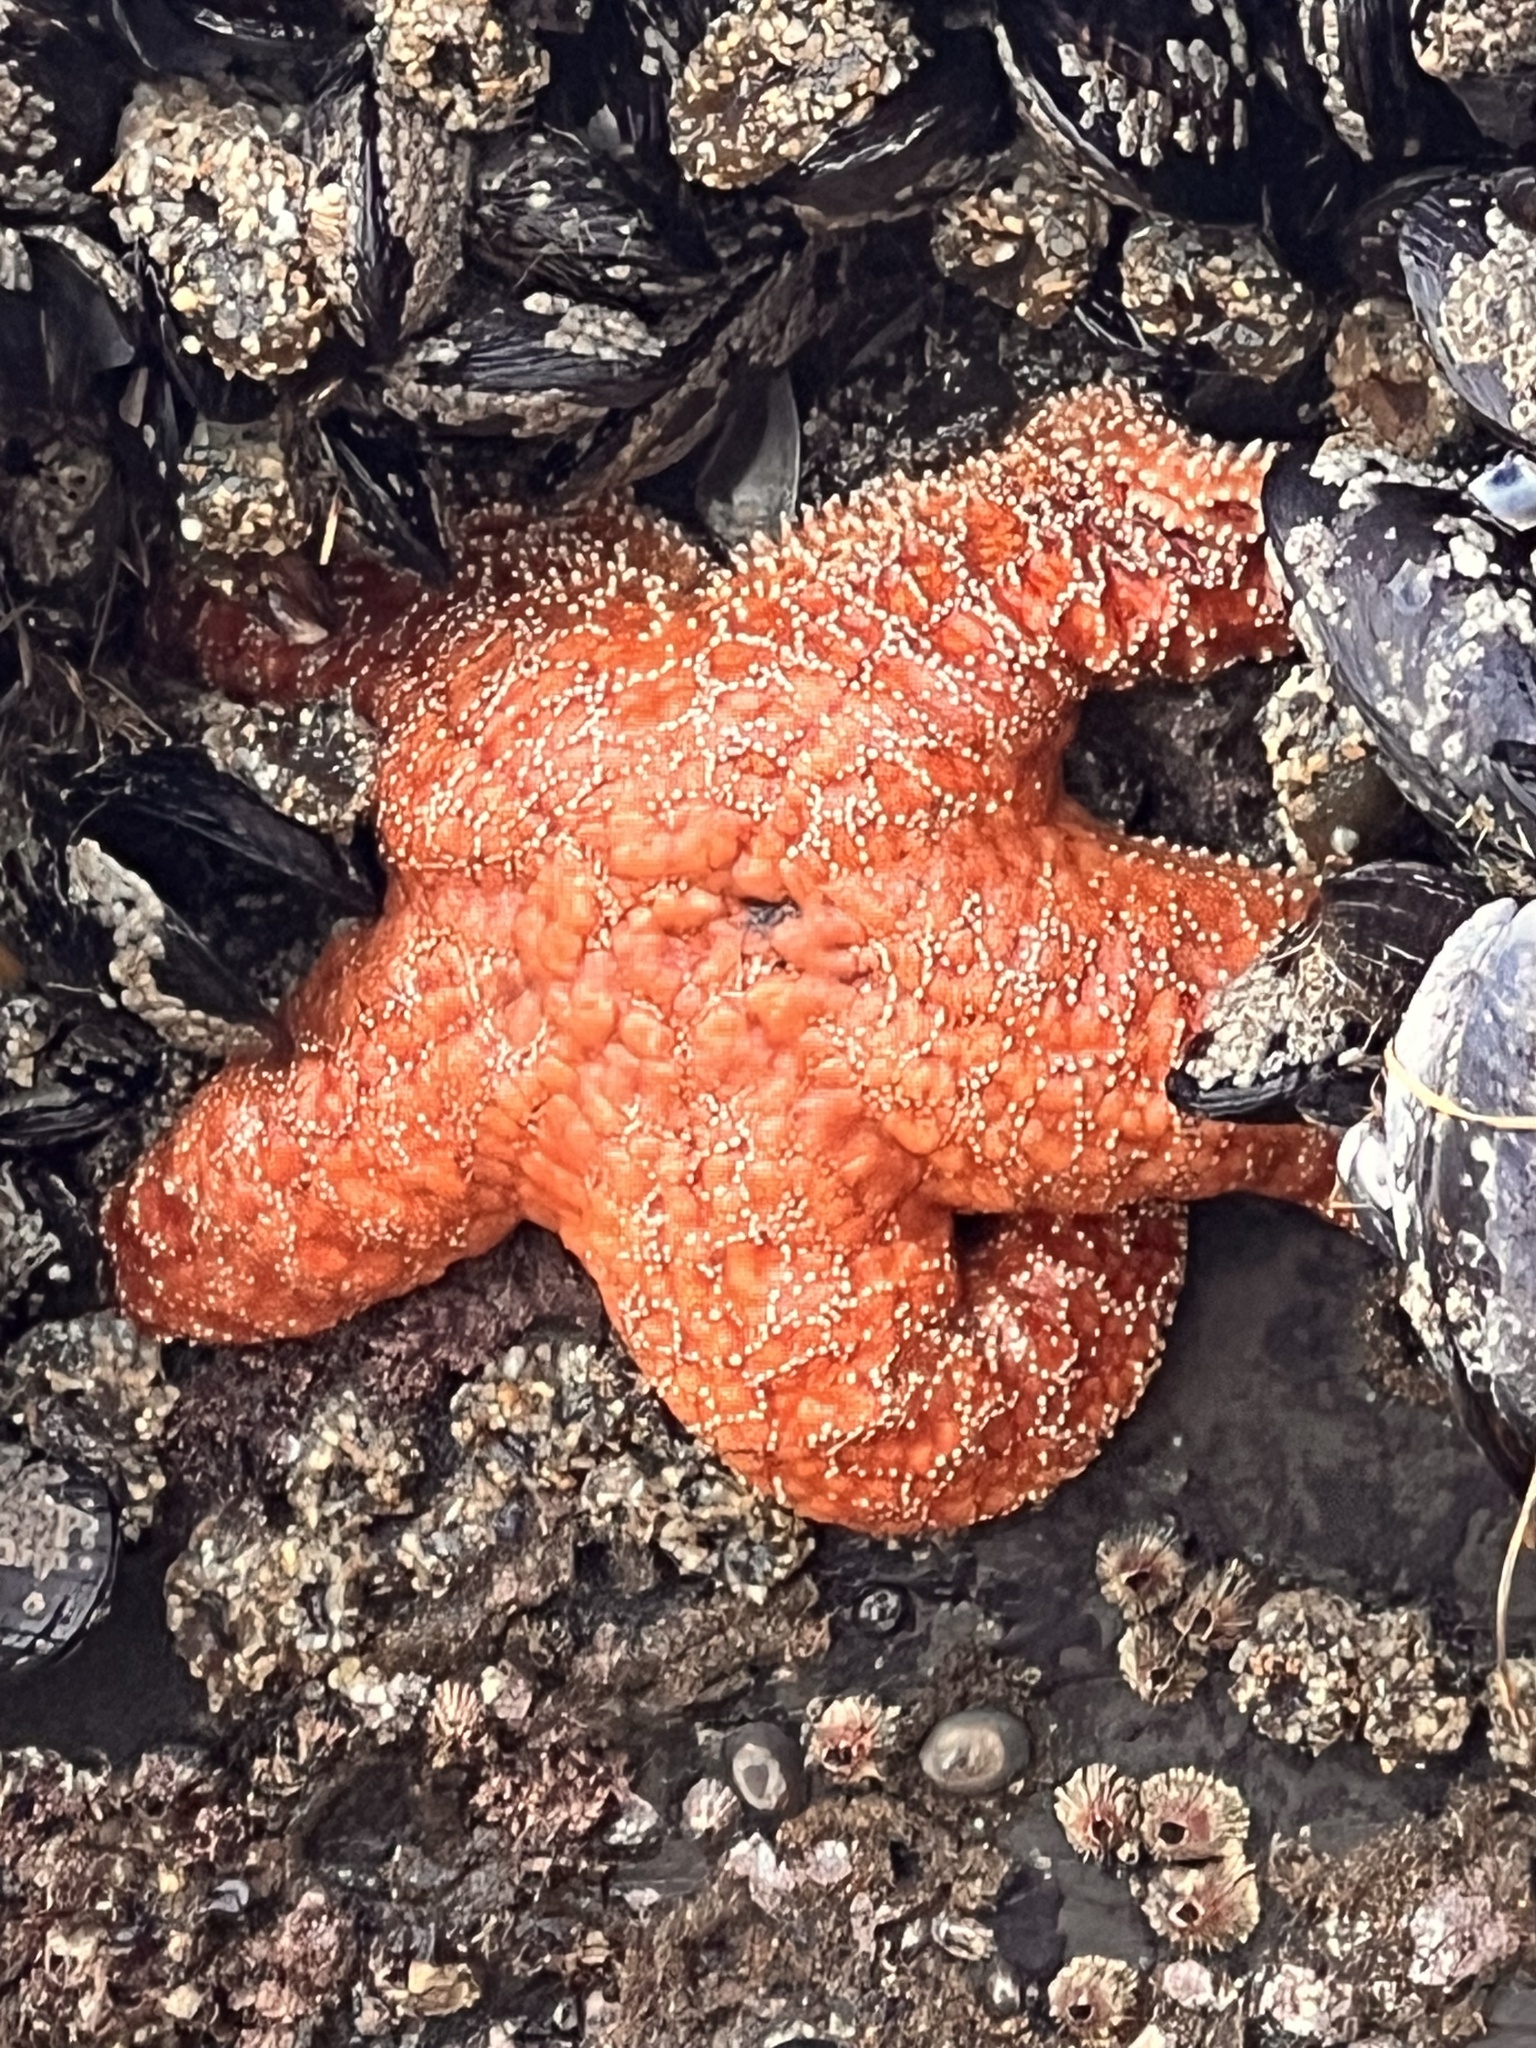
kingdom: Animalia
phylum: Echinodermata
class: Asteroidea
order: Forcipulatida
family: Asteriidae
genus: Pisaster
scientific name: Pisaster ochraceus
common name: Ochre stars
